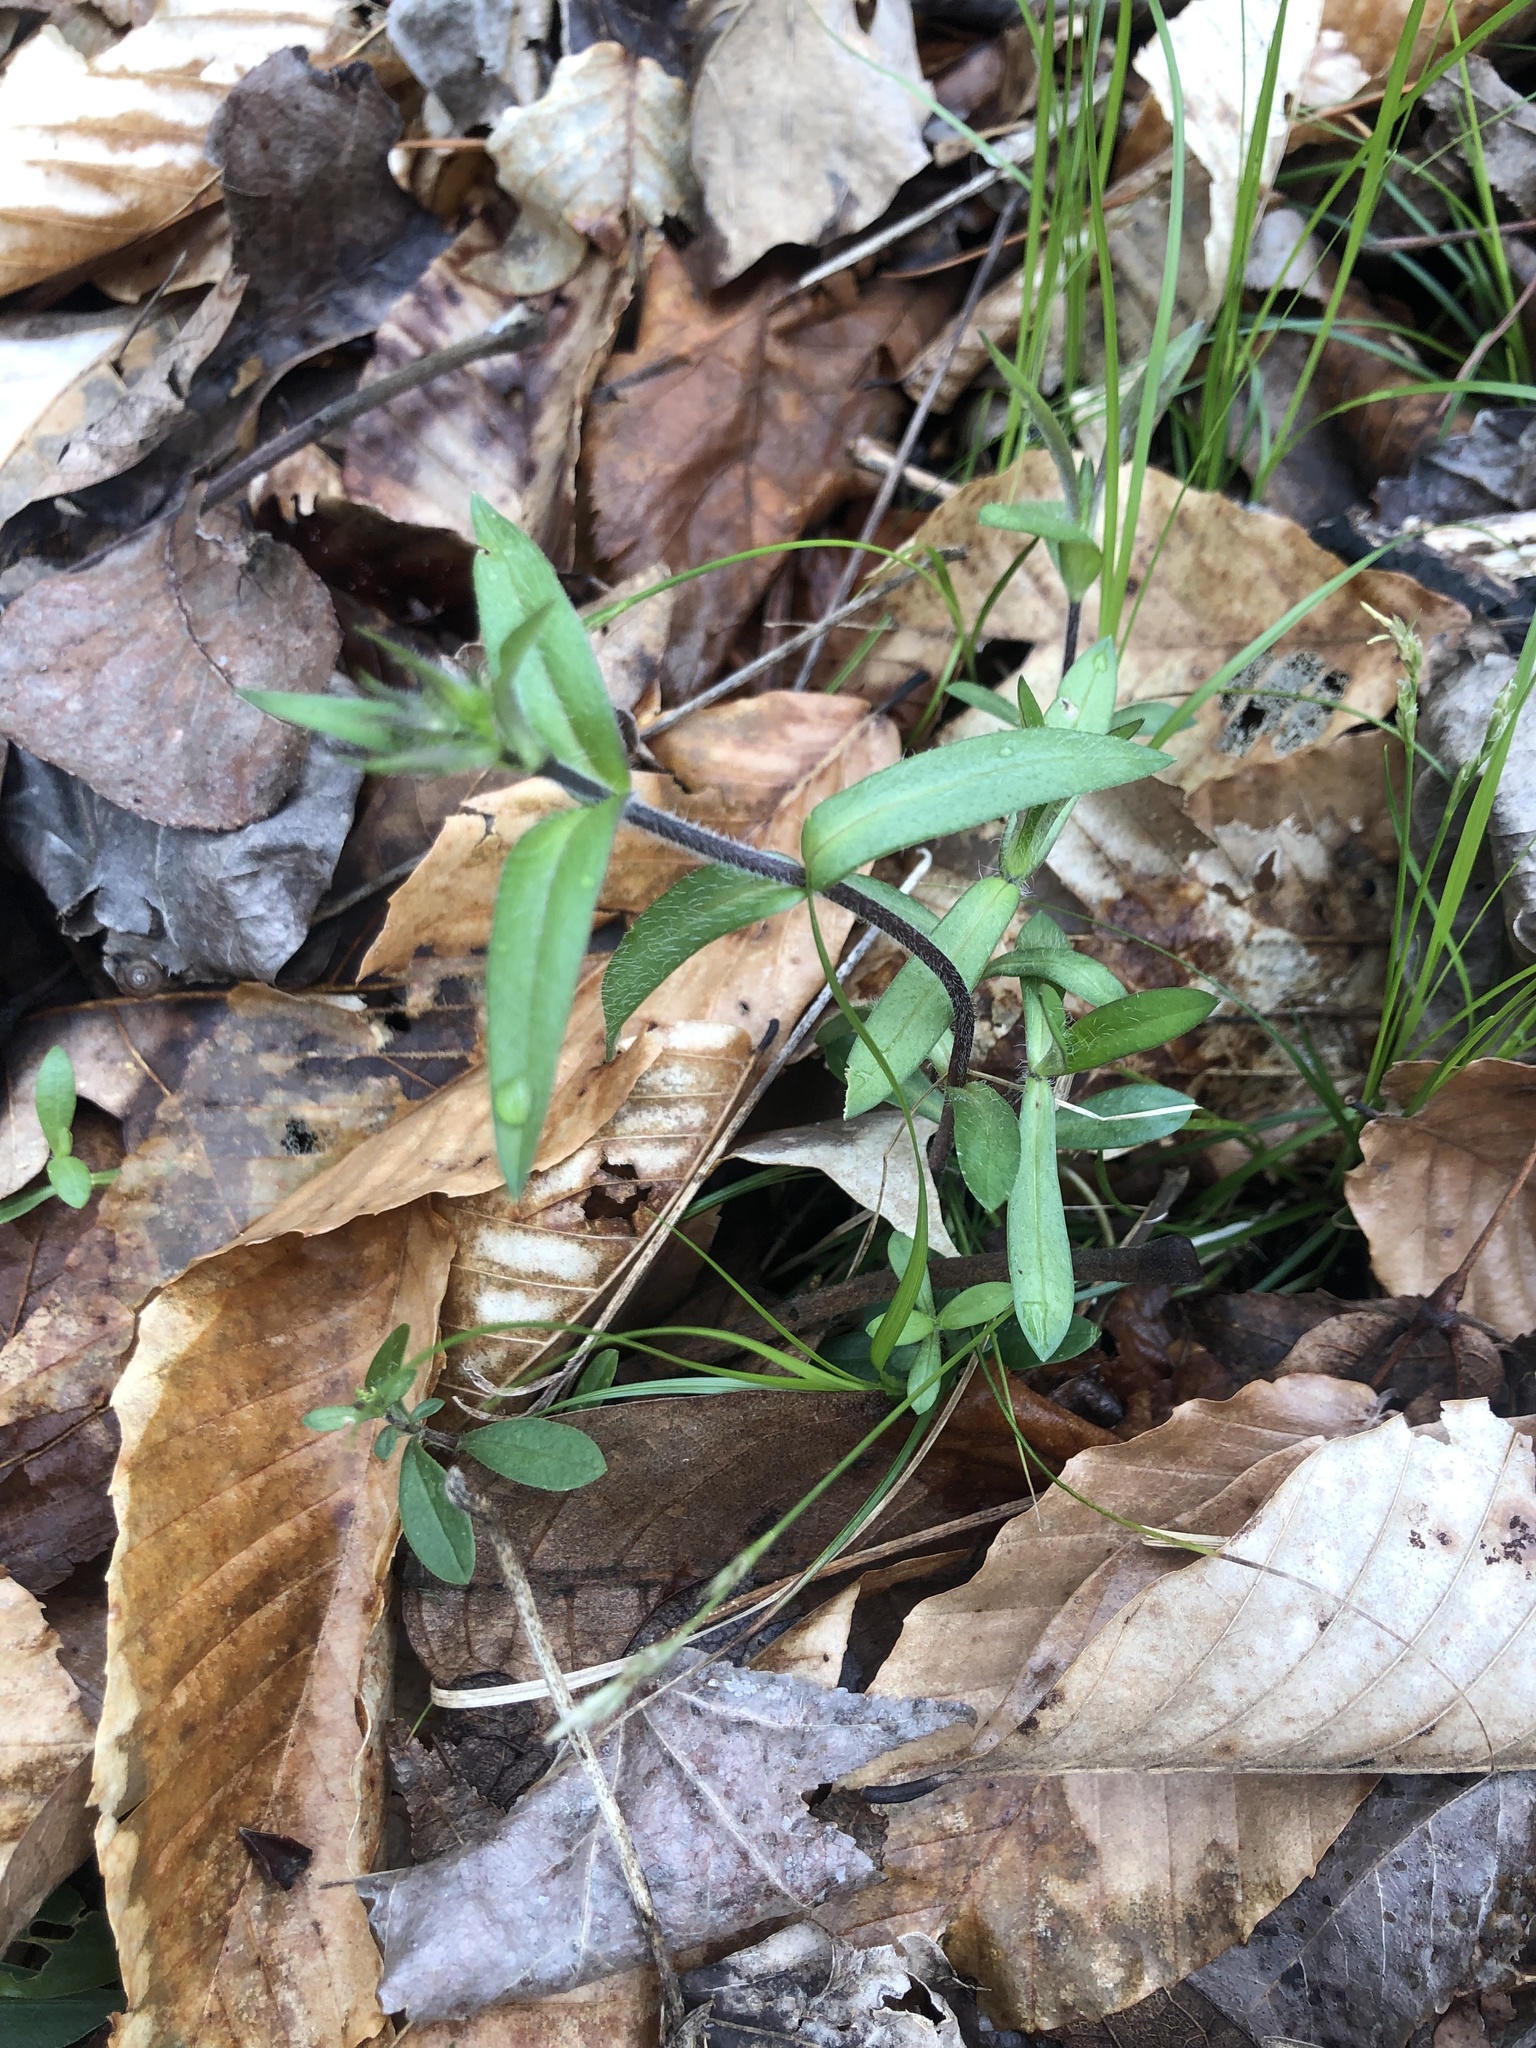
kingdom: Plantae
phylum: Tracheophyta
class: Magnoliopsida
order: Ericales
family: Polemoniaceae
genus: Phlox
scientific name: Phlox divaricata
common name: Blue phlox
